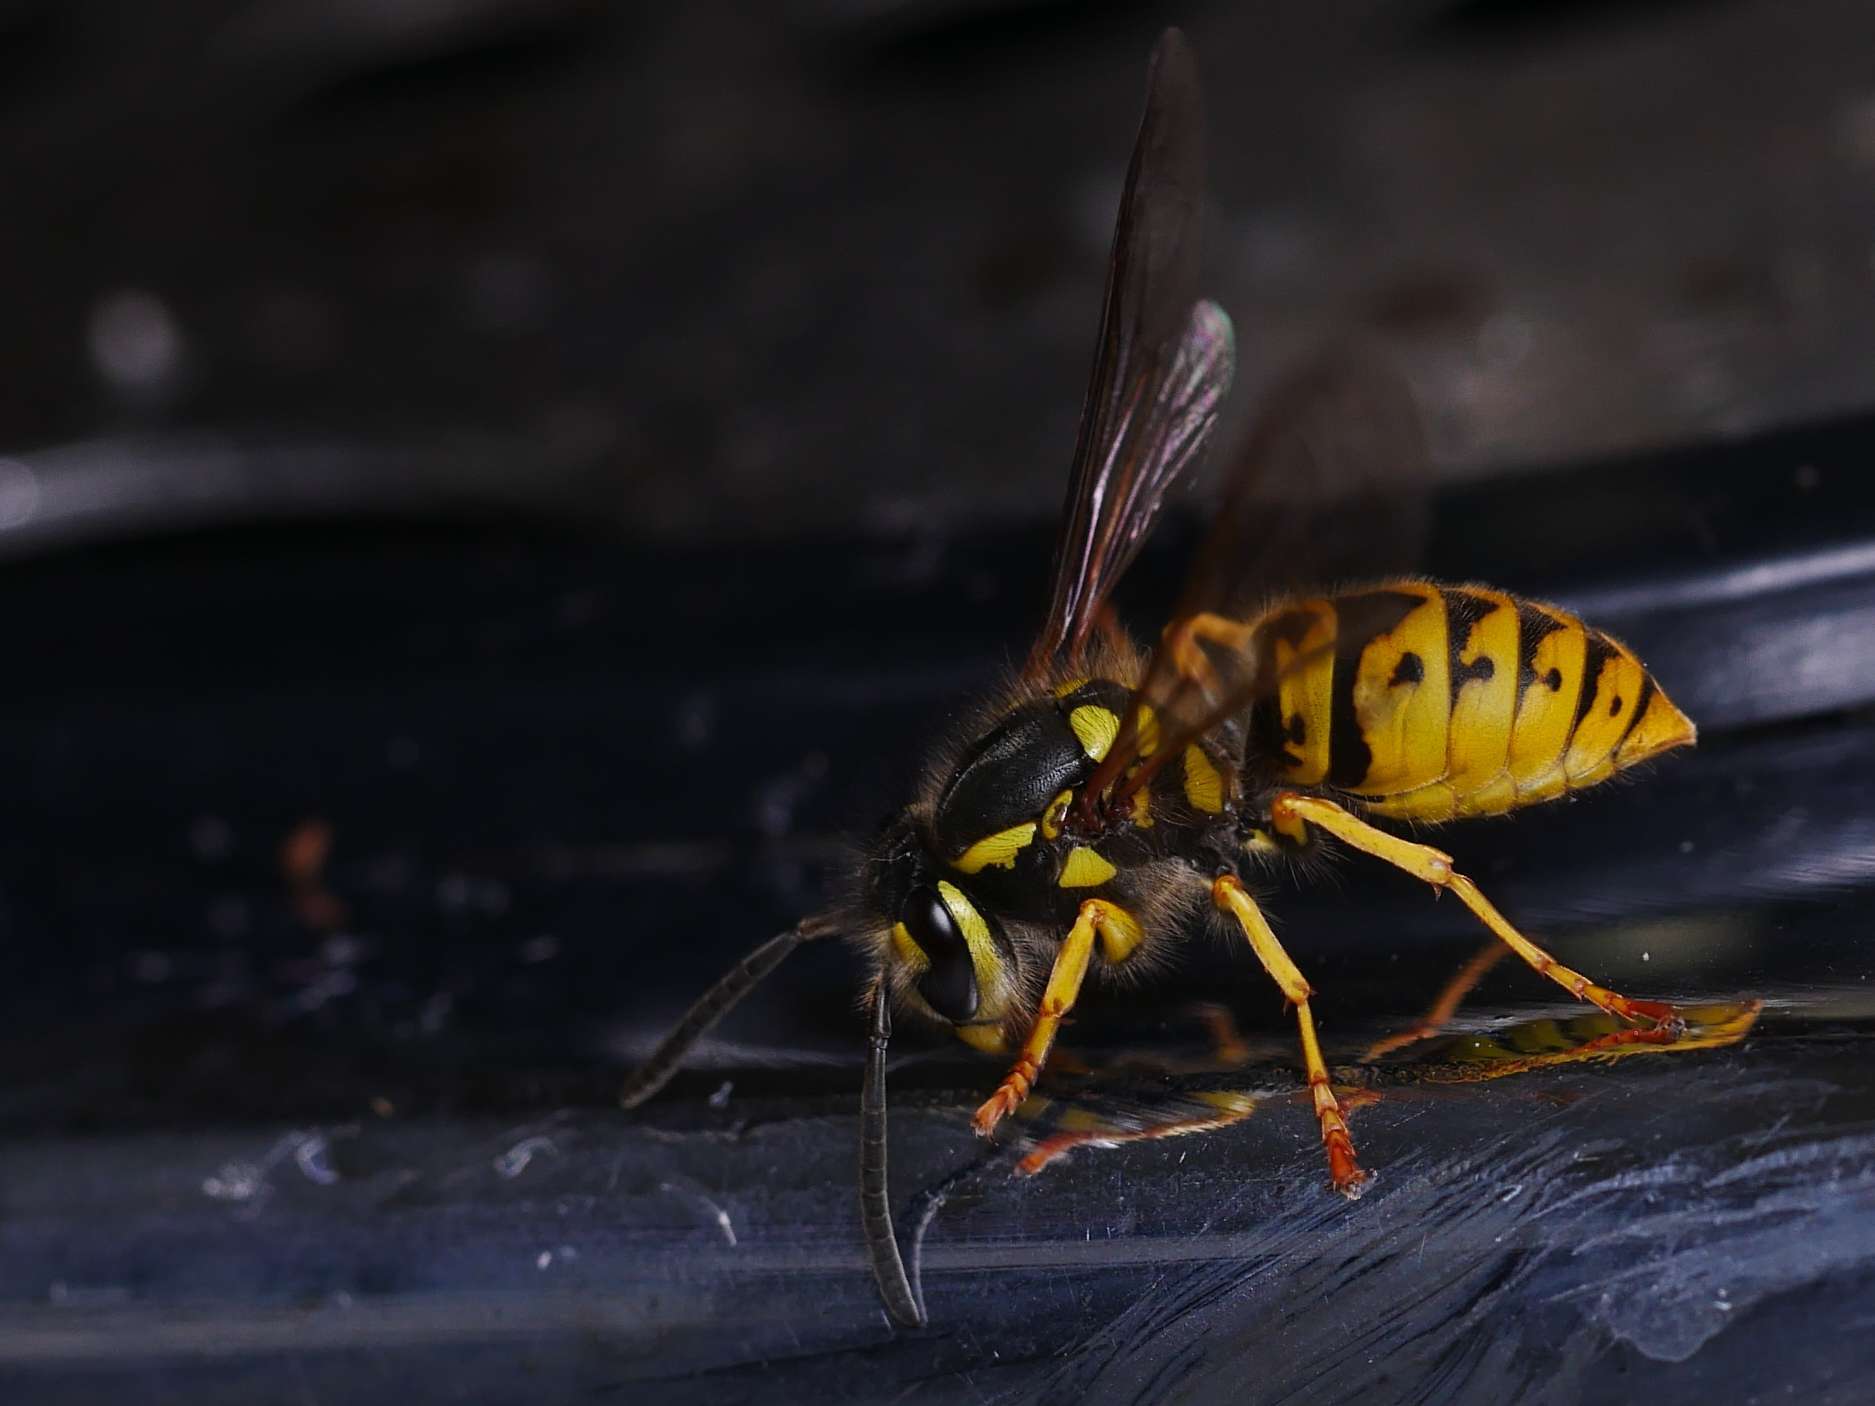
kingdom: Animalia
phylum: Arthropoda
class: Insecta
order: Hymenoptera
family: Vespidae
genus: Vespula
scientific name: Vespula germanica
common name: German wasp
